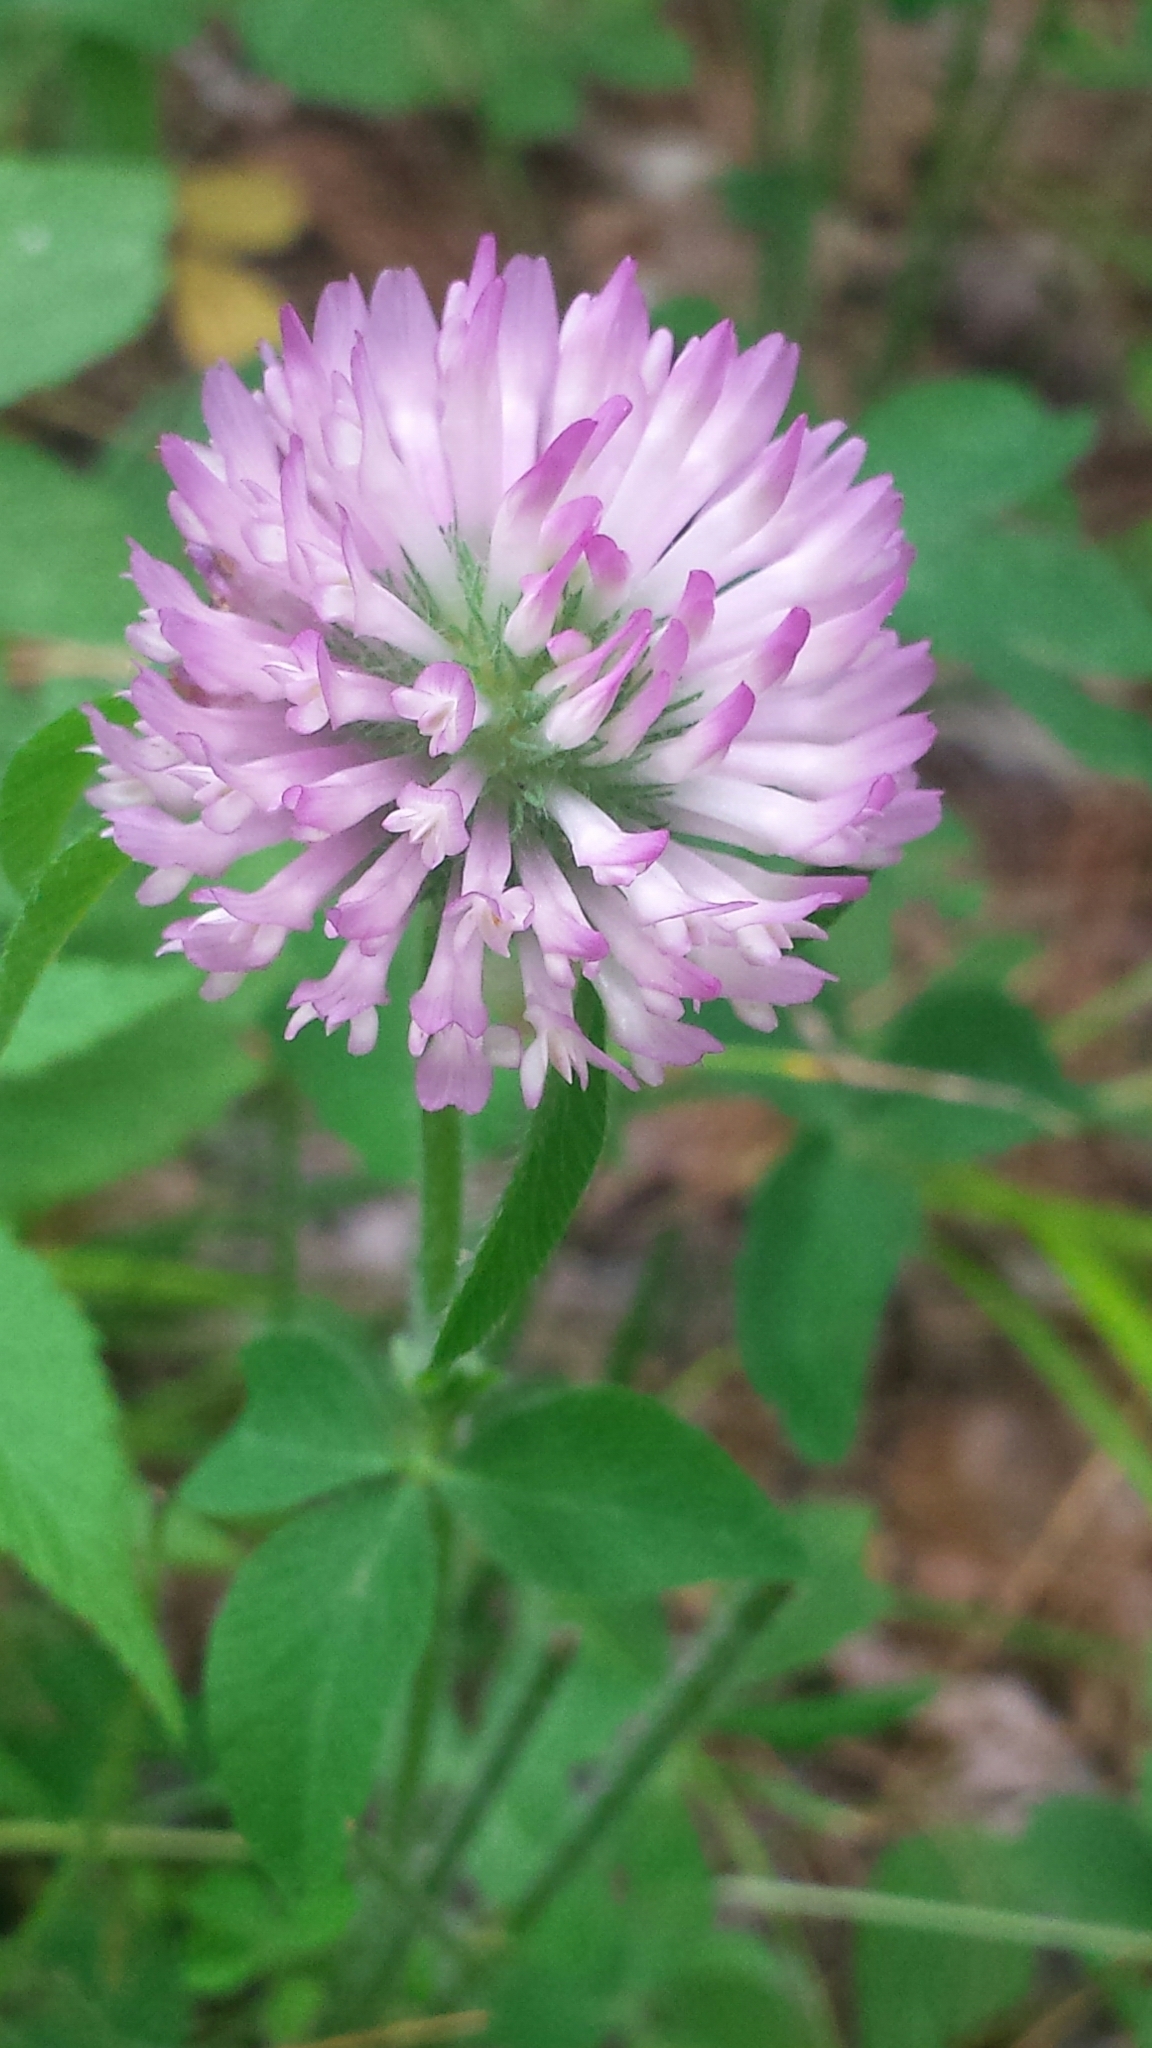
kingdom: Plantae
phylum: Tracheophyta
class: Magnoliopsida
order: Fabales
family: Fabaceae
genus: Trifolium
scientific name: Trifolium pratense
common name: Red clover
